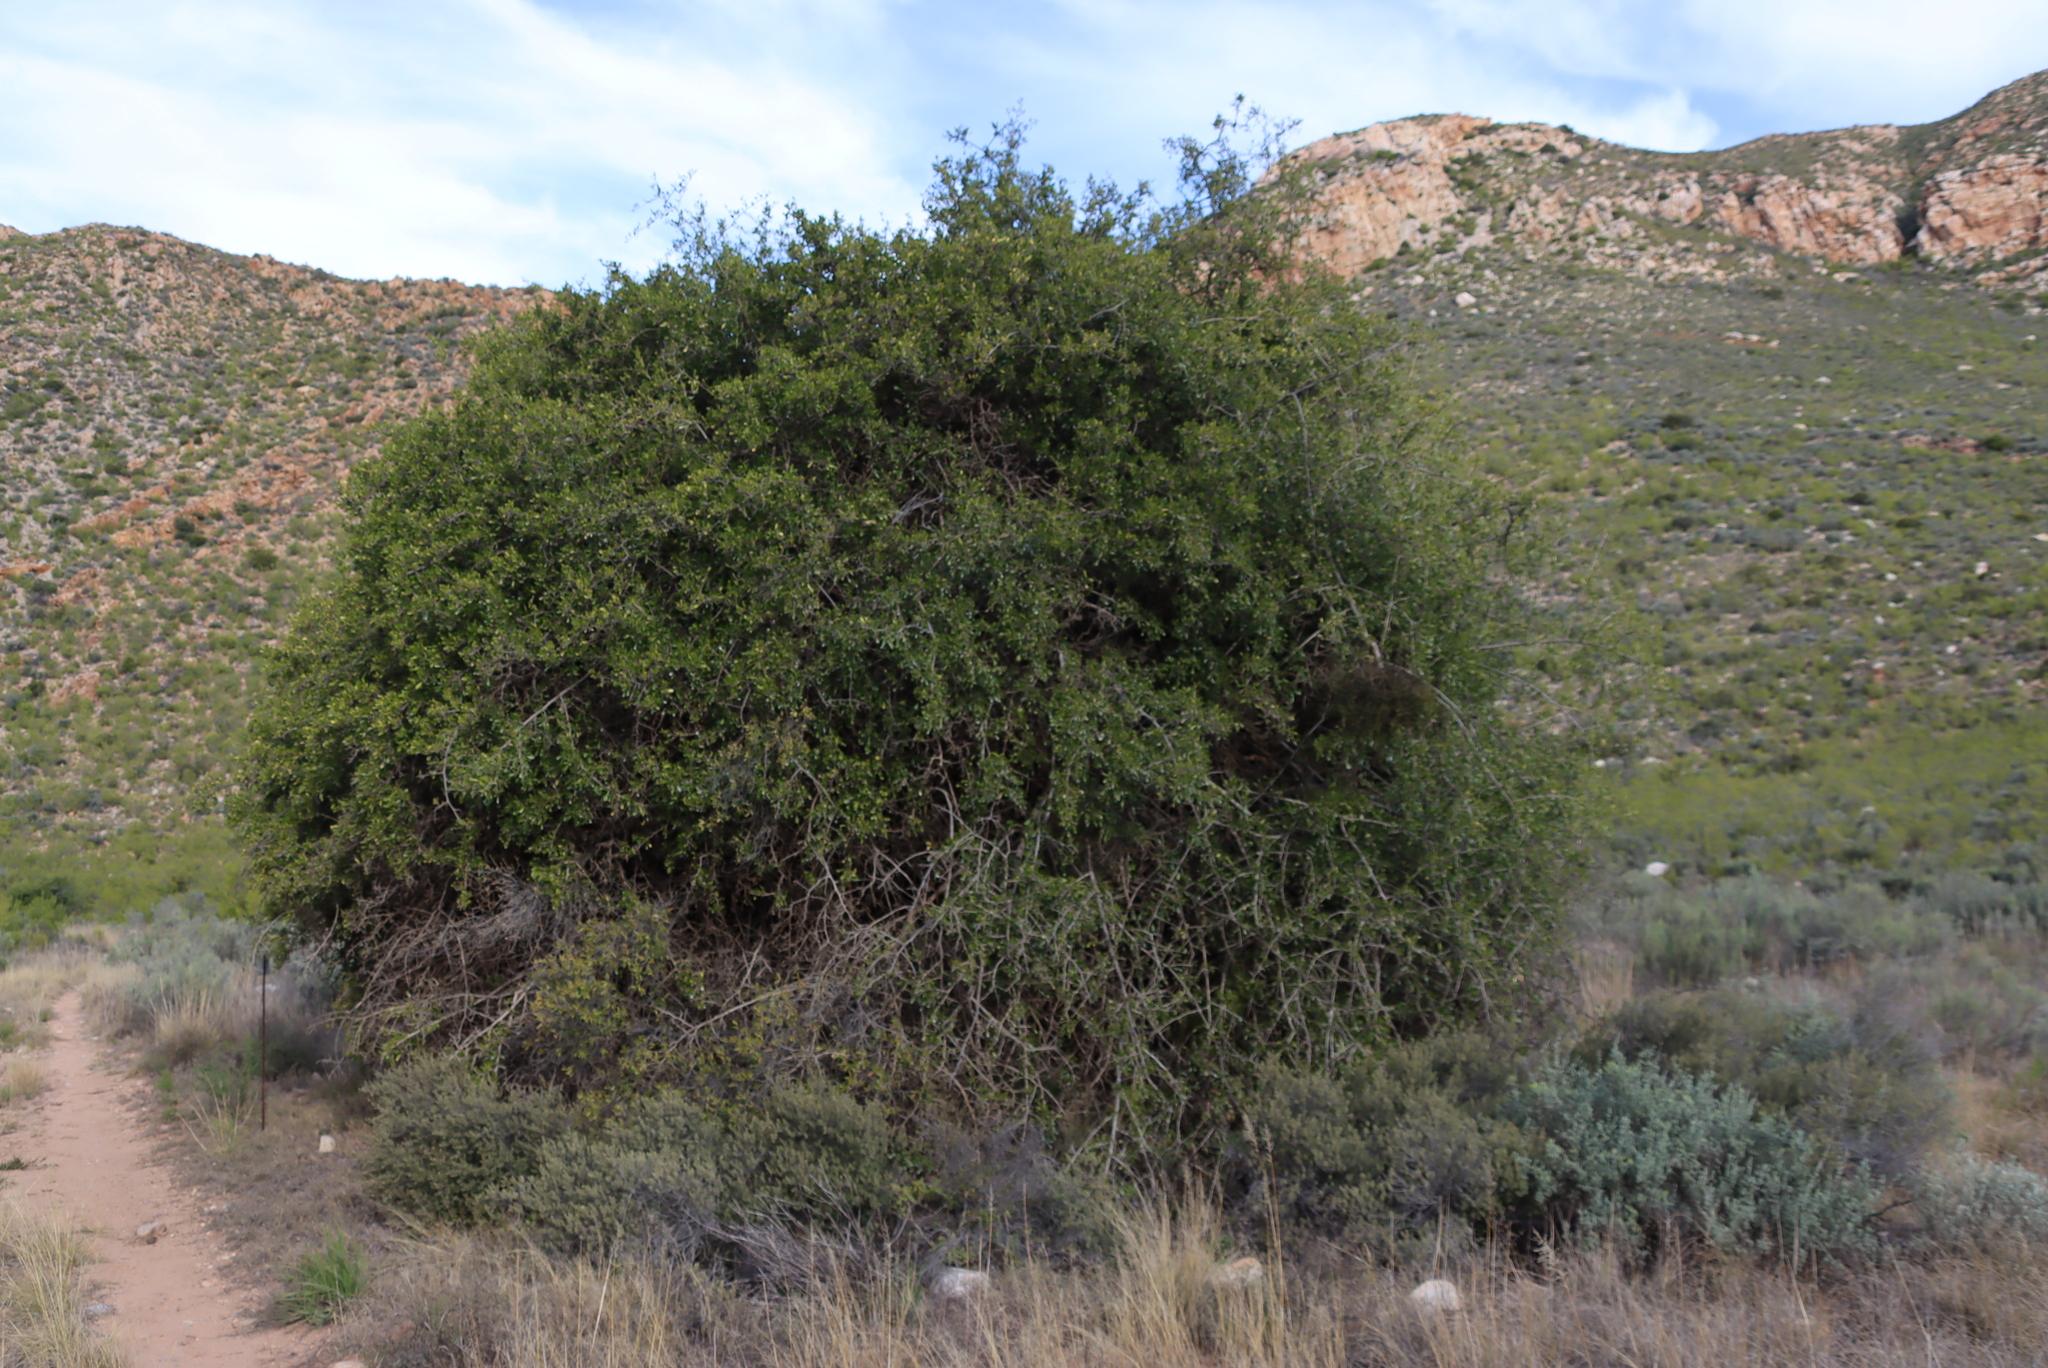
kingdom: Plantae
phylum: Tracheophyta
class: Magnoliopsida
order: Sapindales
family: Anacardiaceae
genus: Searsia
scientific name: Searsia longispina
